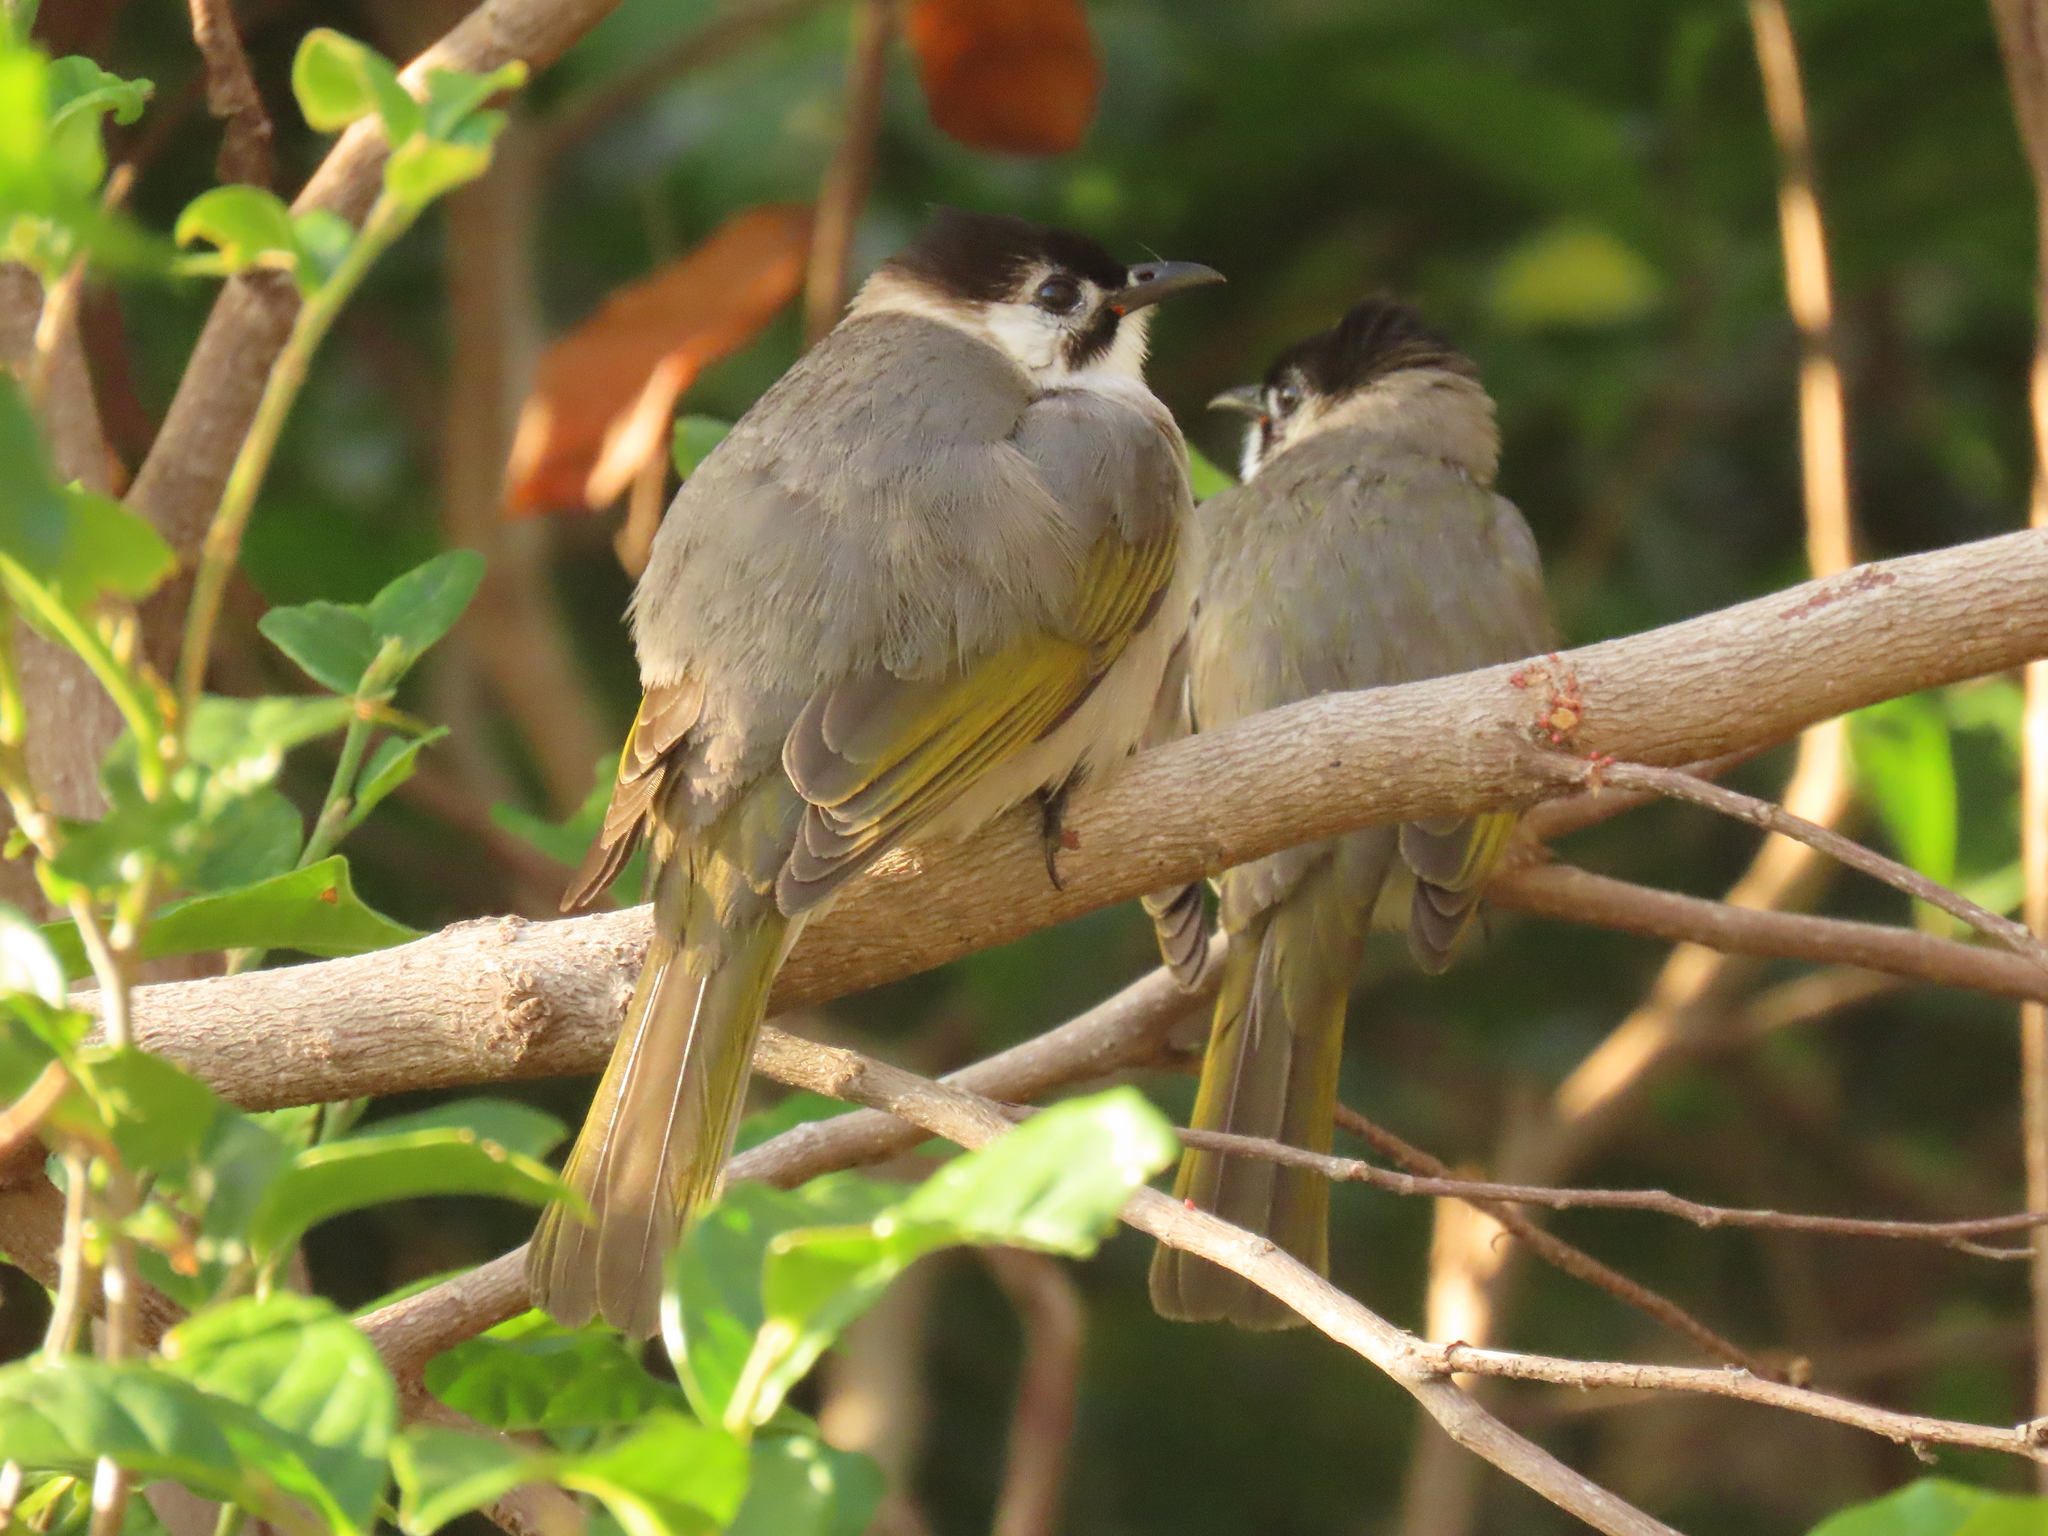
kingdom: Animalia
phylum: Chordata
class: Aves
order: Passeriformes
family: Pycnonotidae
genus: Pycnonotus
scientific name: Pycnonotus taivanus
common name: Styan's bulbul
